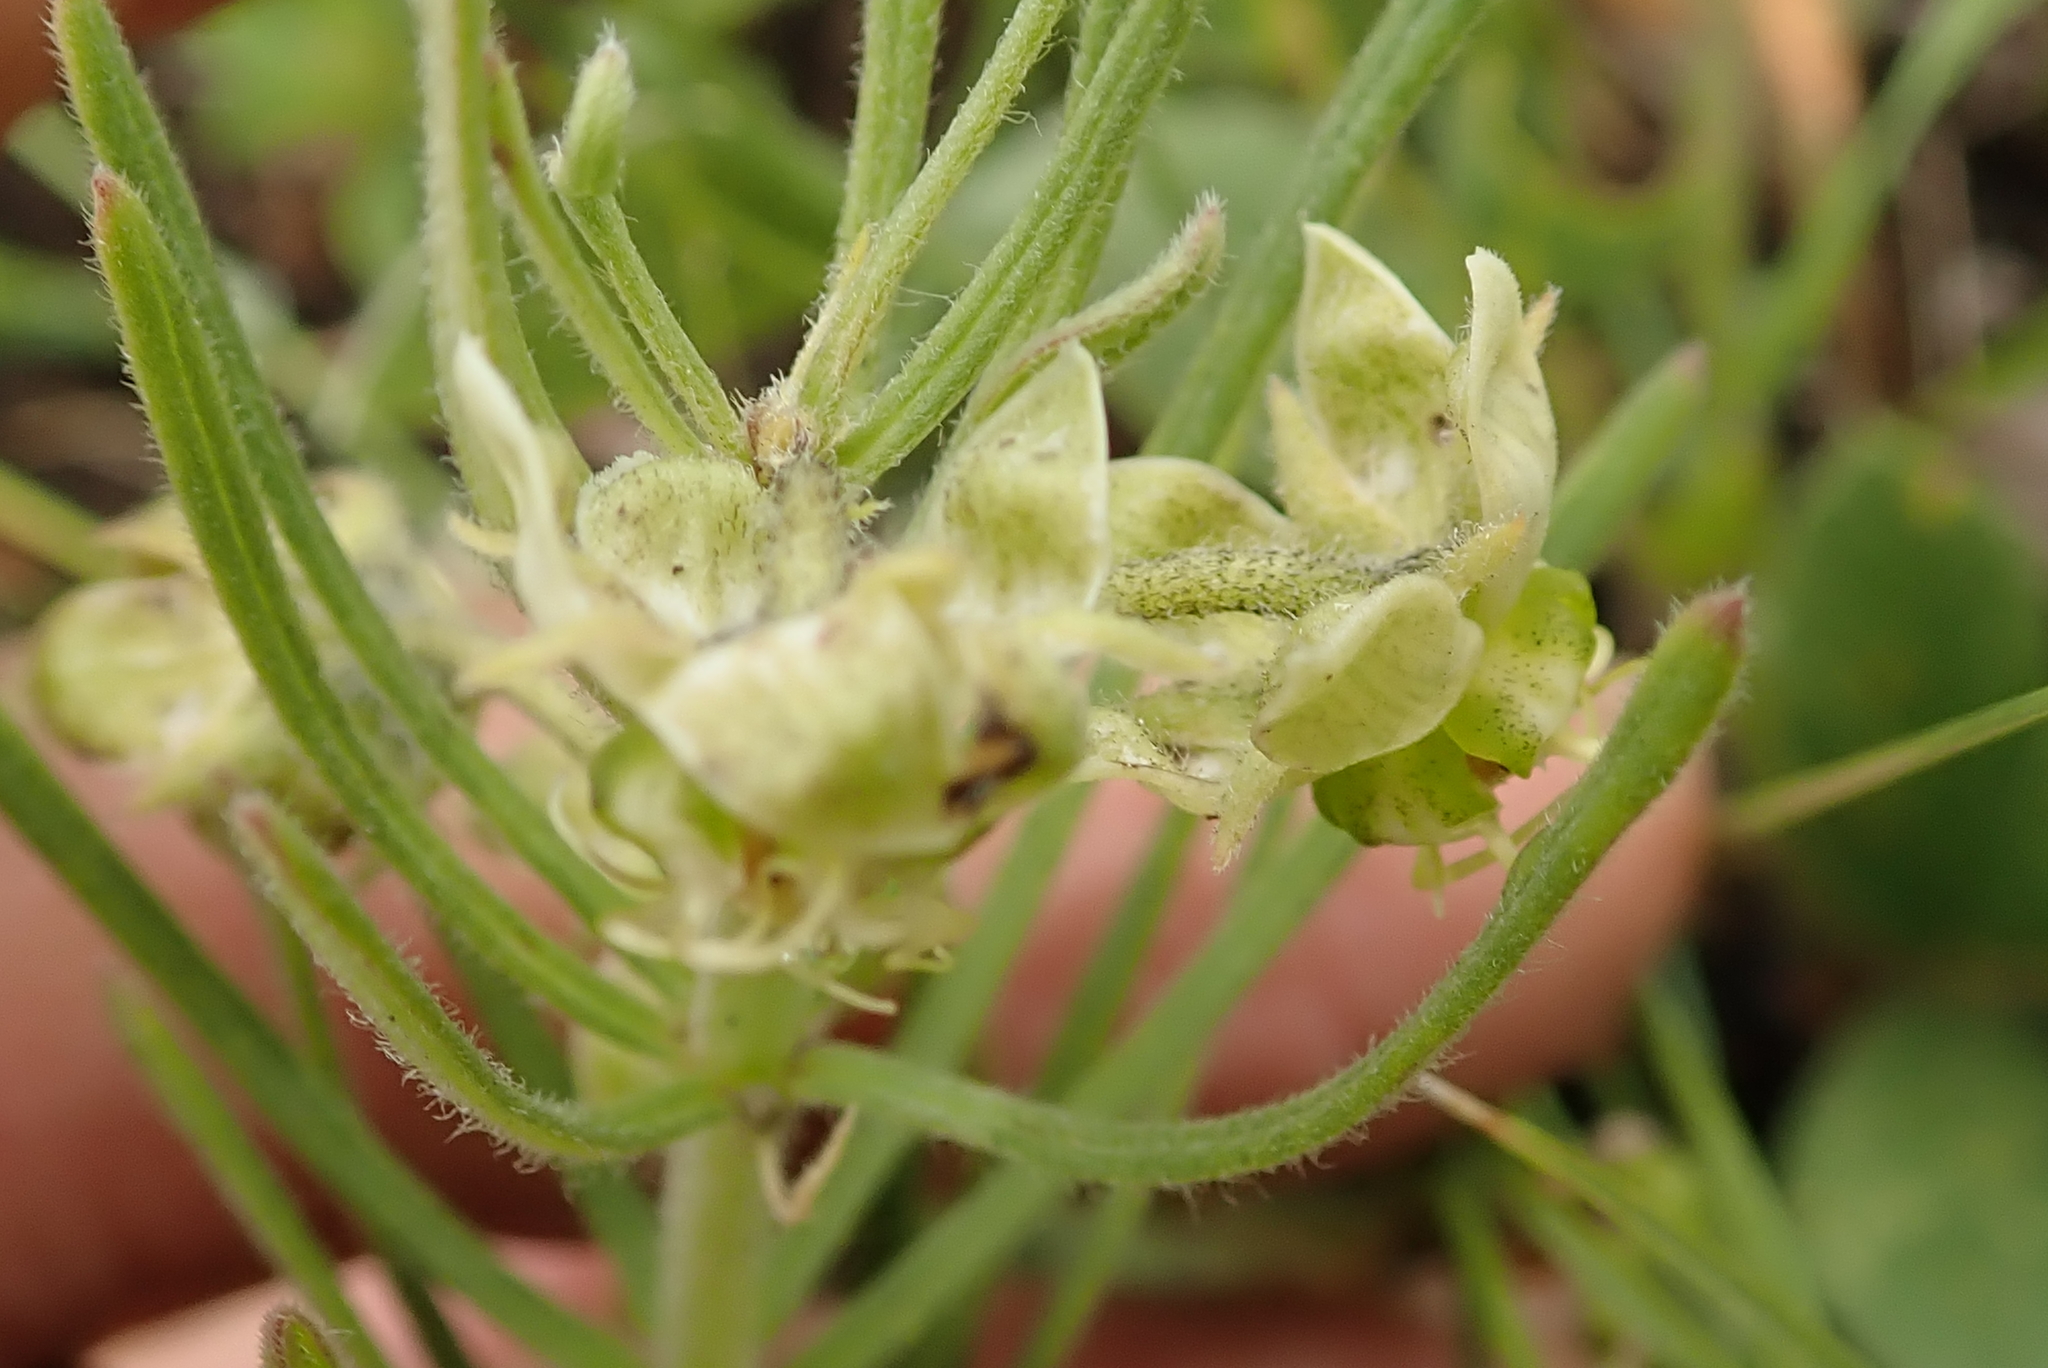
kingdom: Plantae
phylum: Tracheophyta
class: Magnoliopsida
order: Gentianales
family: Apocynaceae
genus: Miraglossum
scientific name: Miraglossum verticillare
